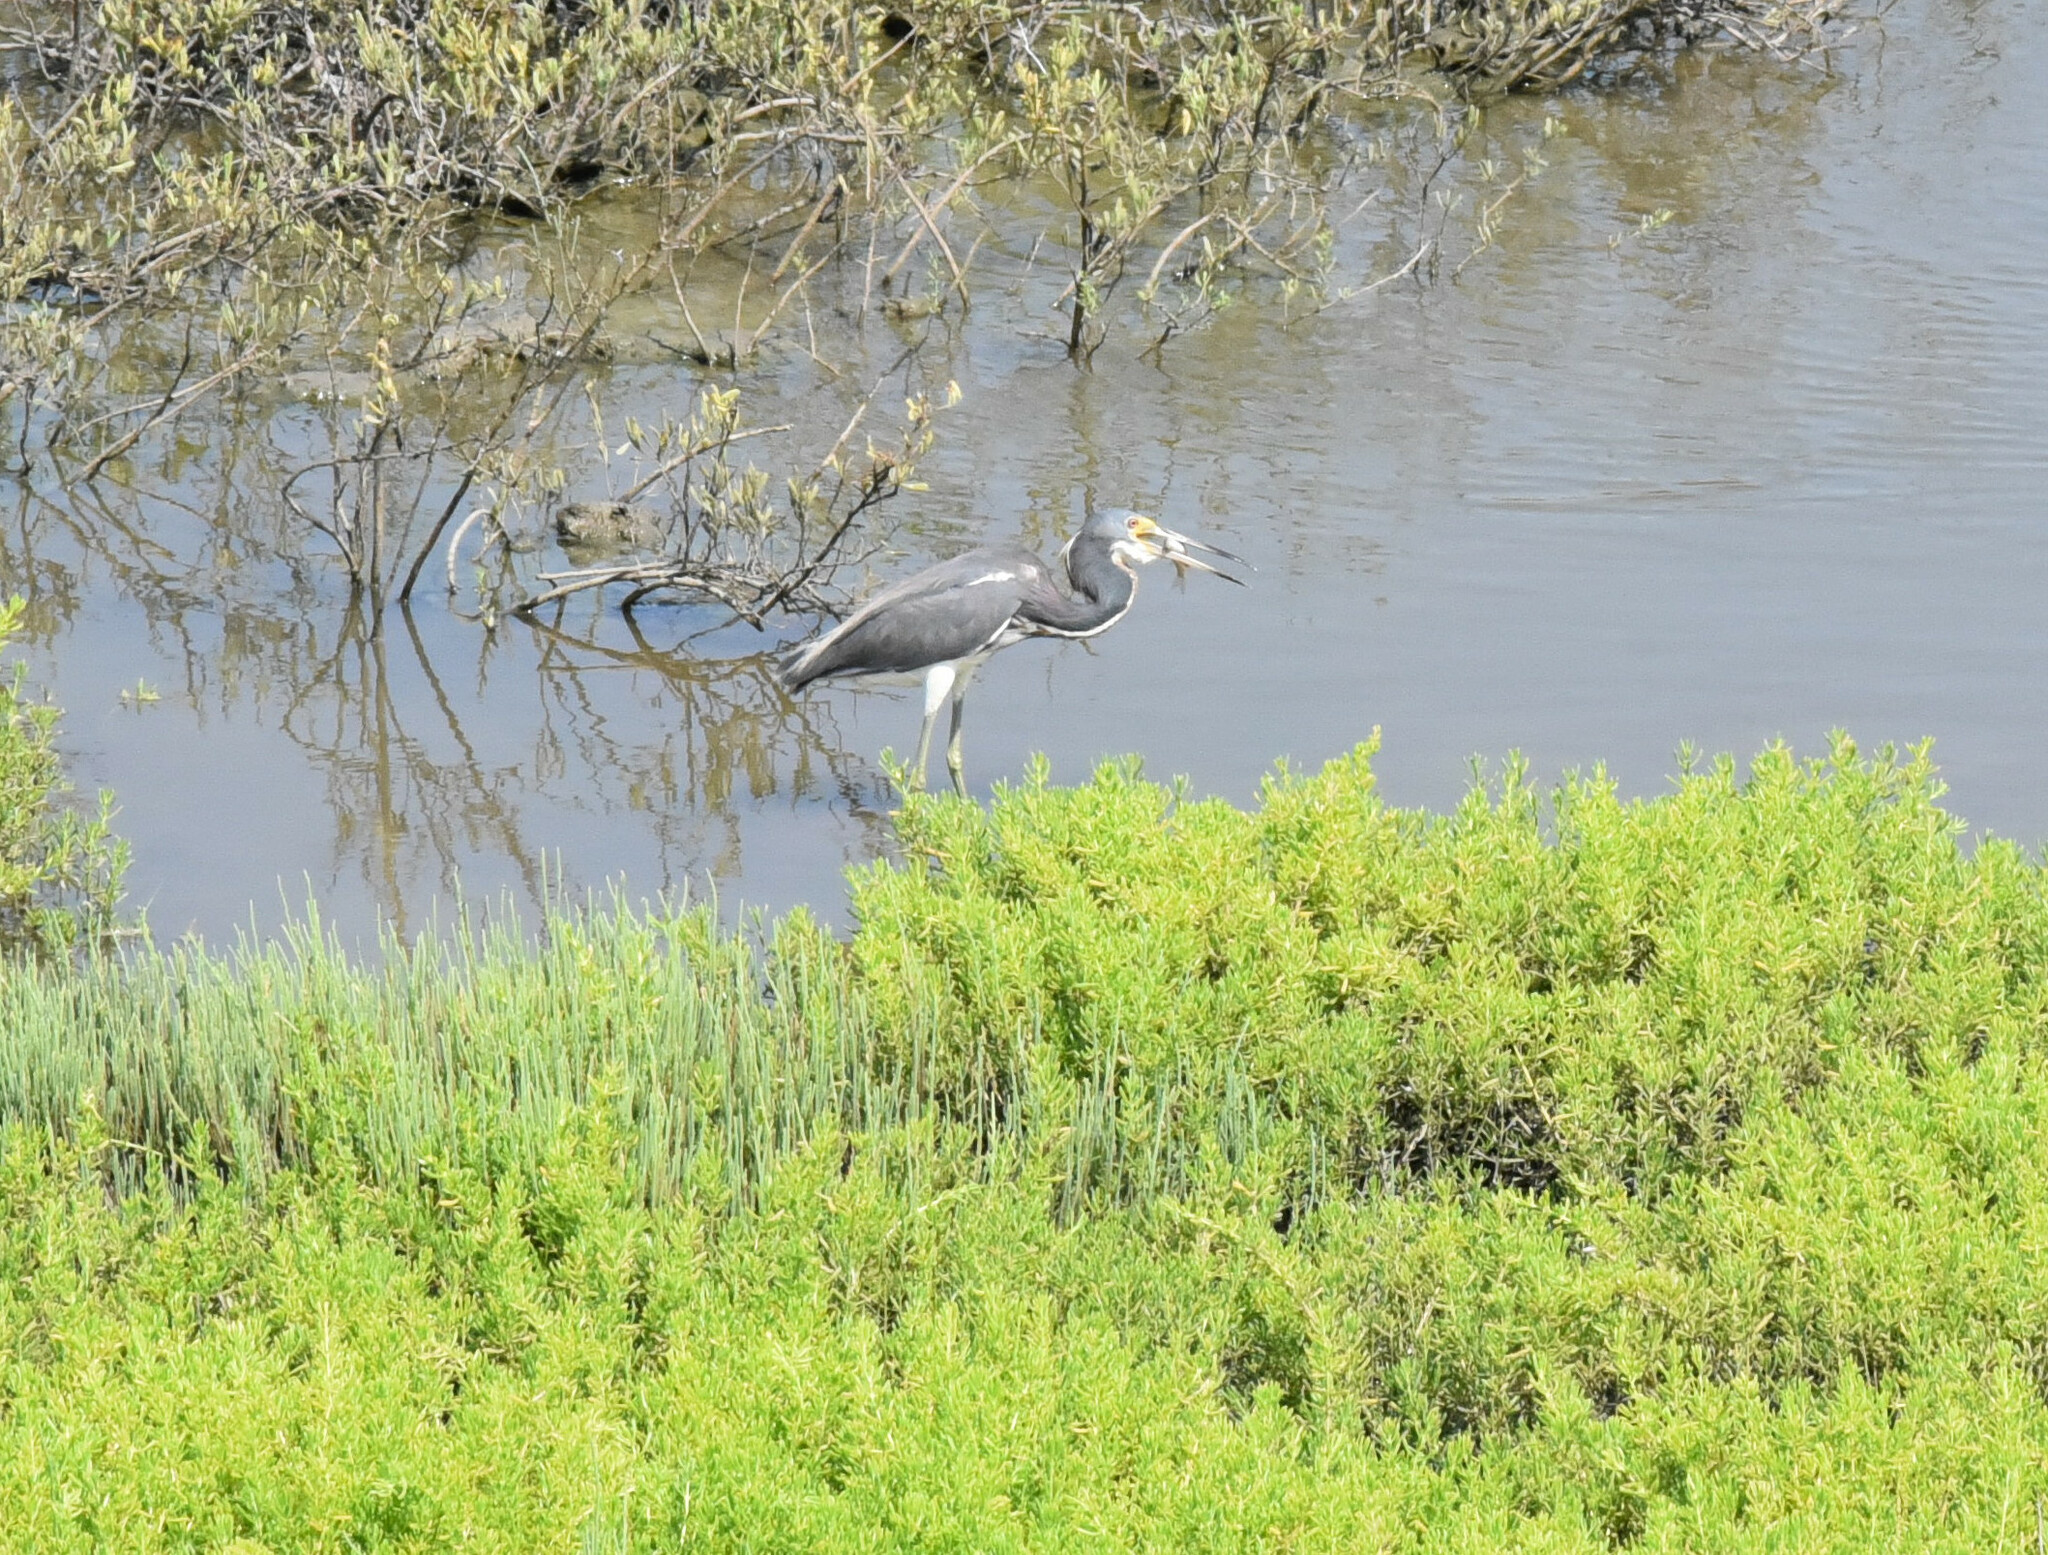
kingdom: Animalia
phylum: Chordata
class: Aves
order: Pelecaniformes
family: Ardeidae
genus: Egretta
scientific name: Egretta tricolor
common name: Tricolored heron
